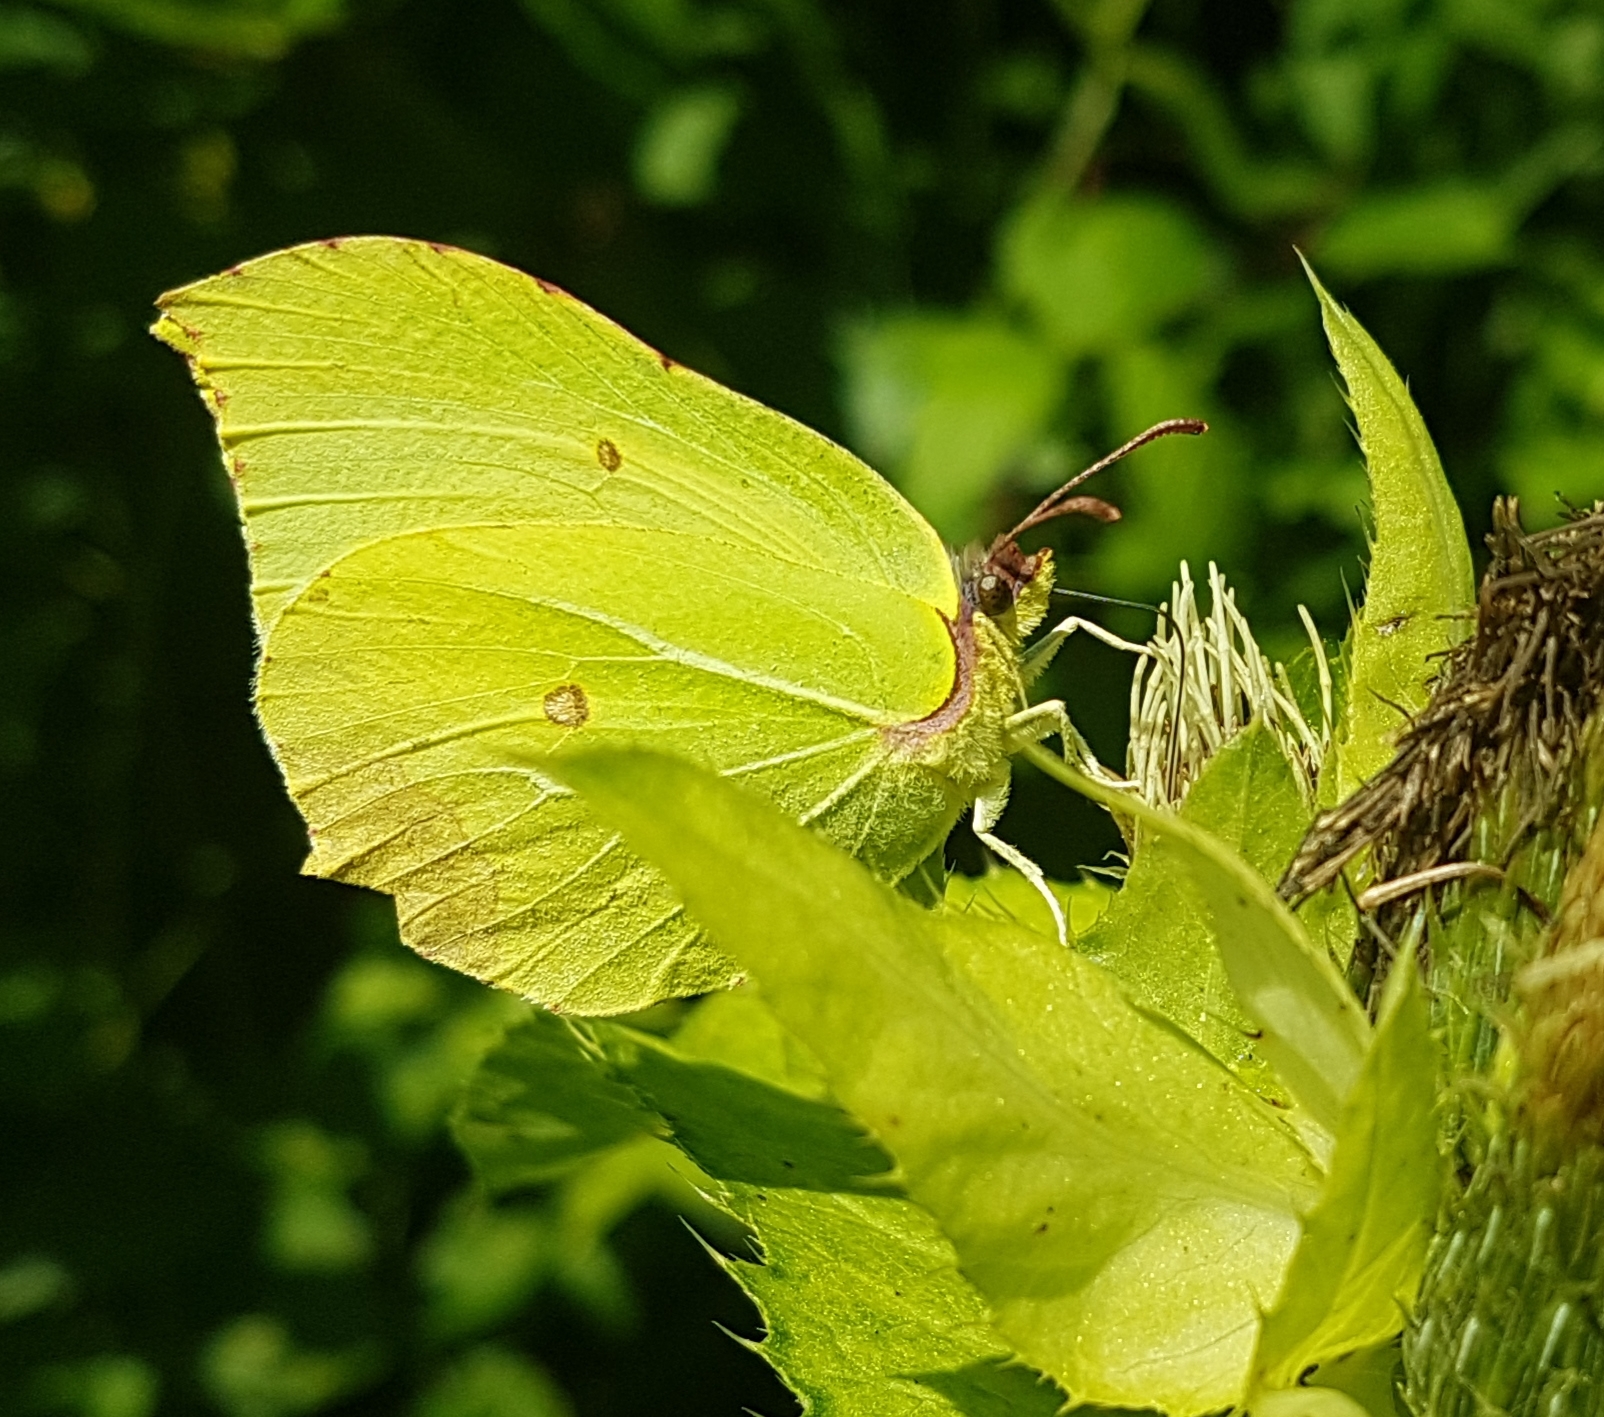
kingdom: Animalia
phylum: Arthropoda
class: Insecta
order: Lepidoptera
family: Pieridae
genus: Gonepteryx
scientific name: Gonepteryx rhamni
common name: Brimstone
